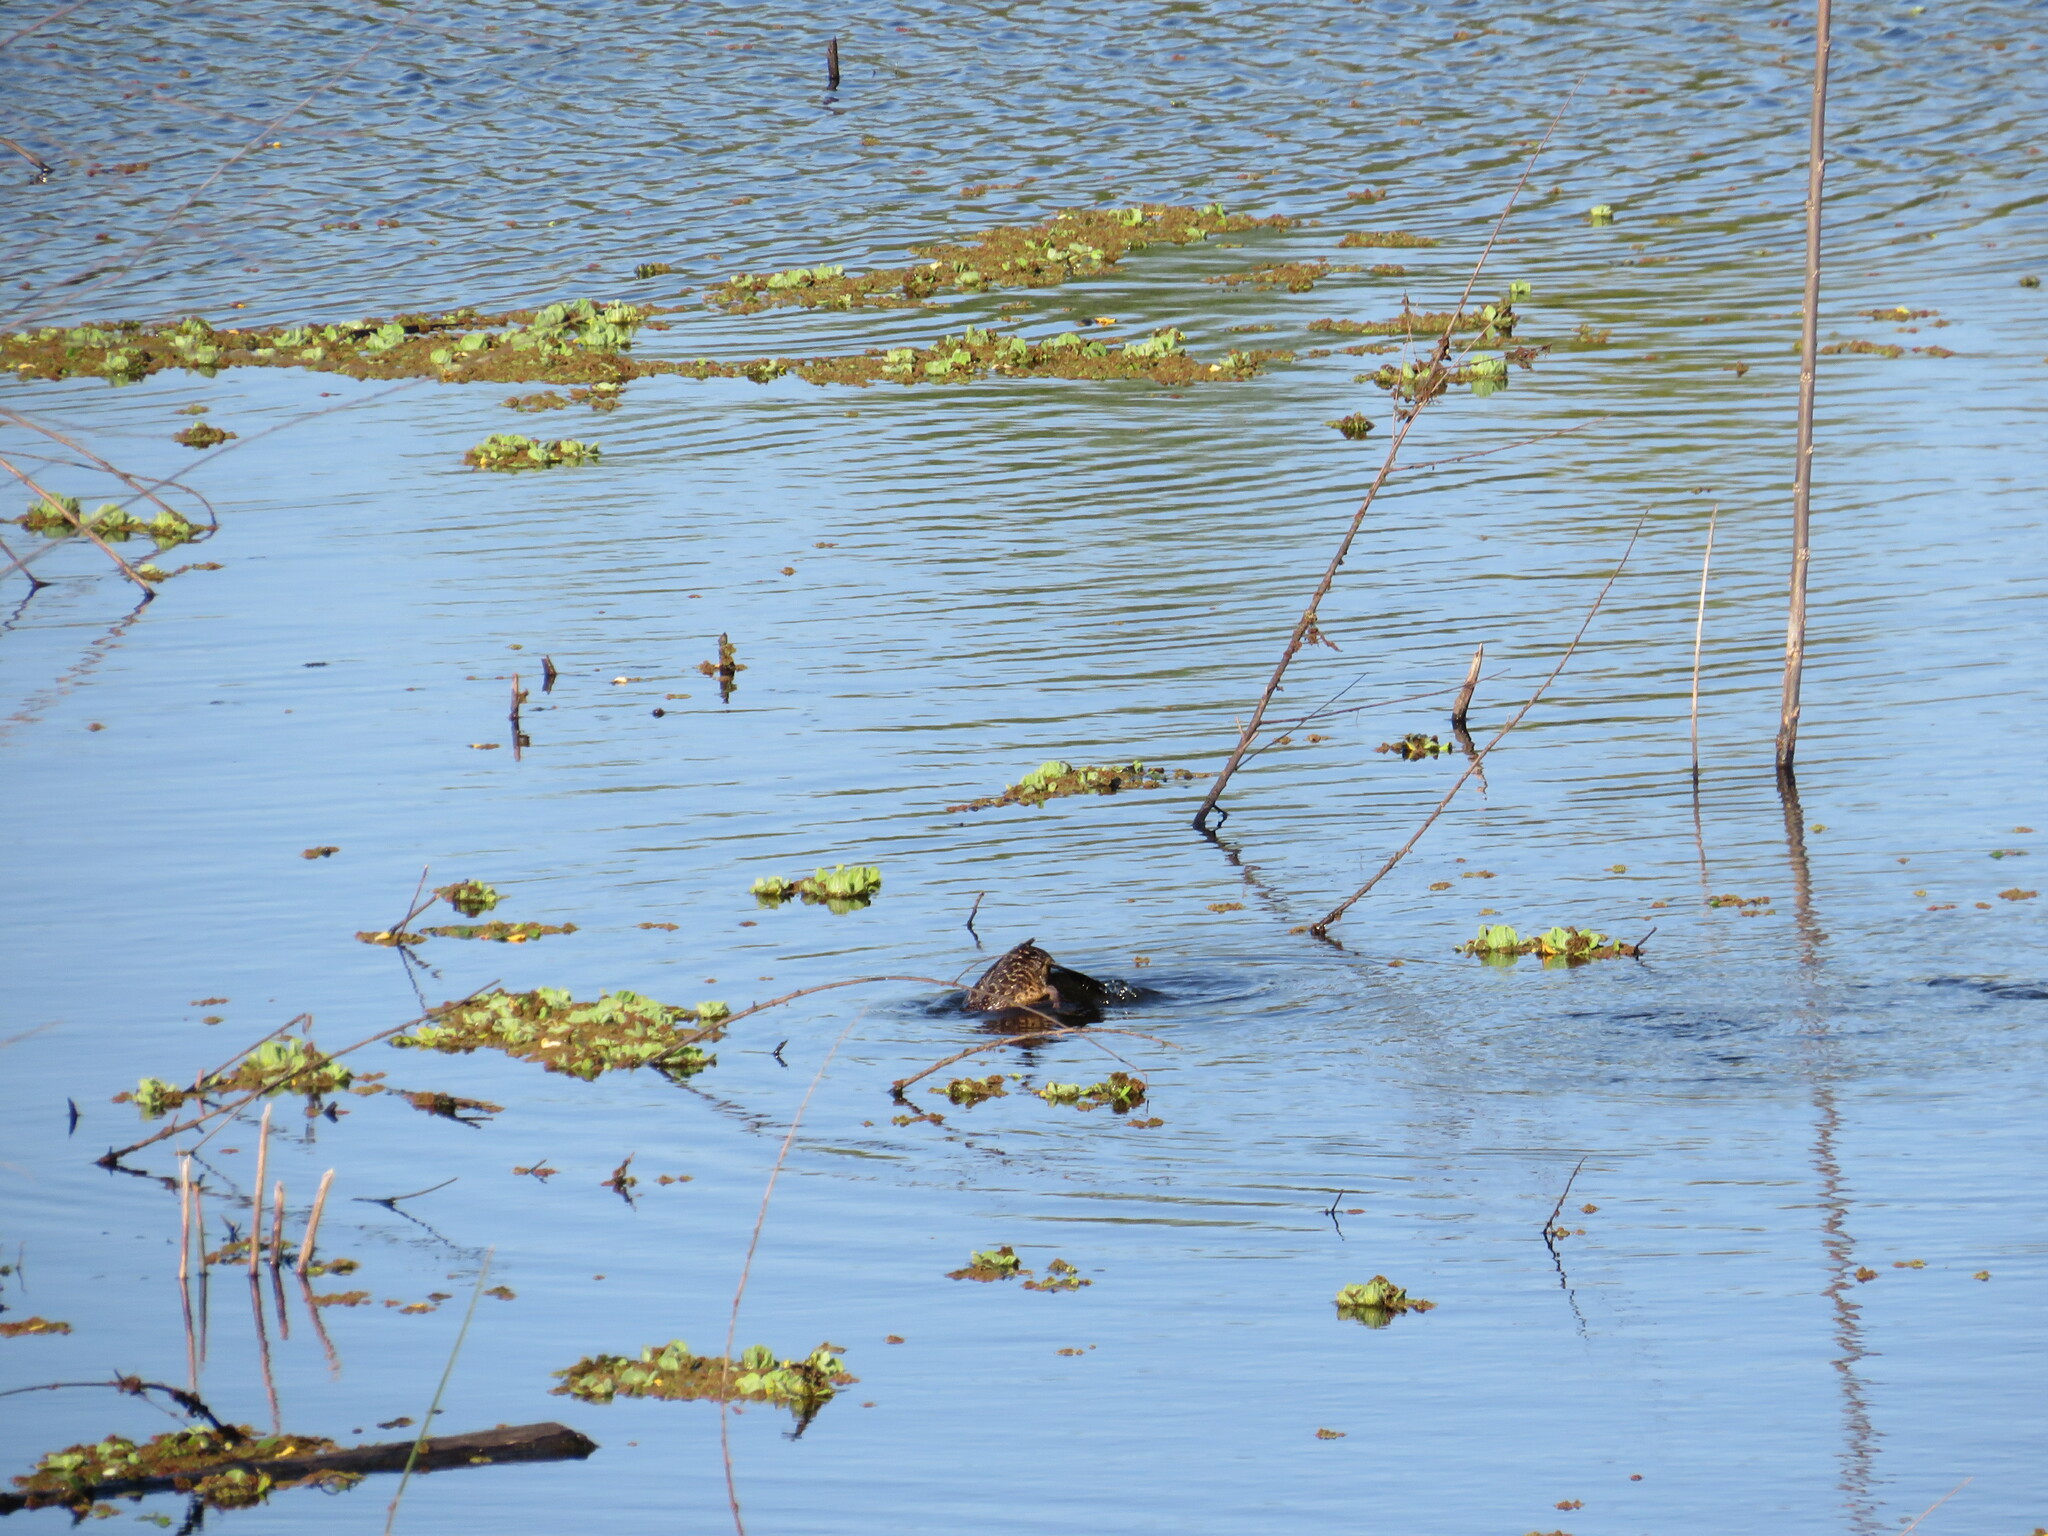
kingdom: Animalia
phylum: Chordata
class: Aves
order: Anseriformes
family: Anatidae
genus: Nomonyx
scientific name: Nomonyx dominicus
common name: Masked duck
